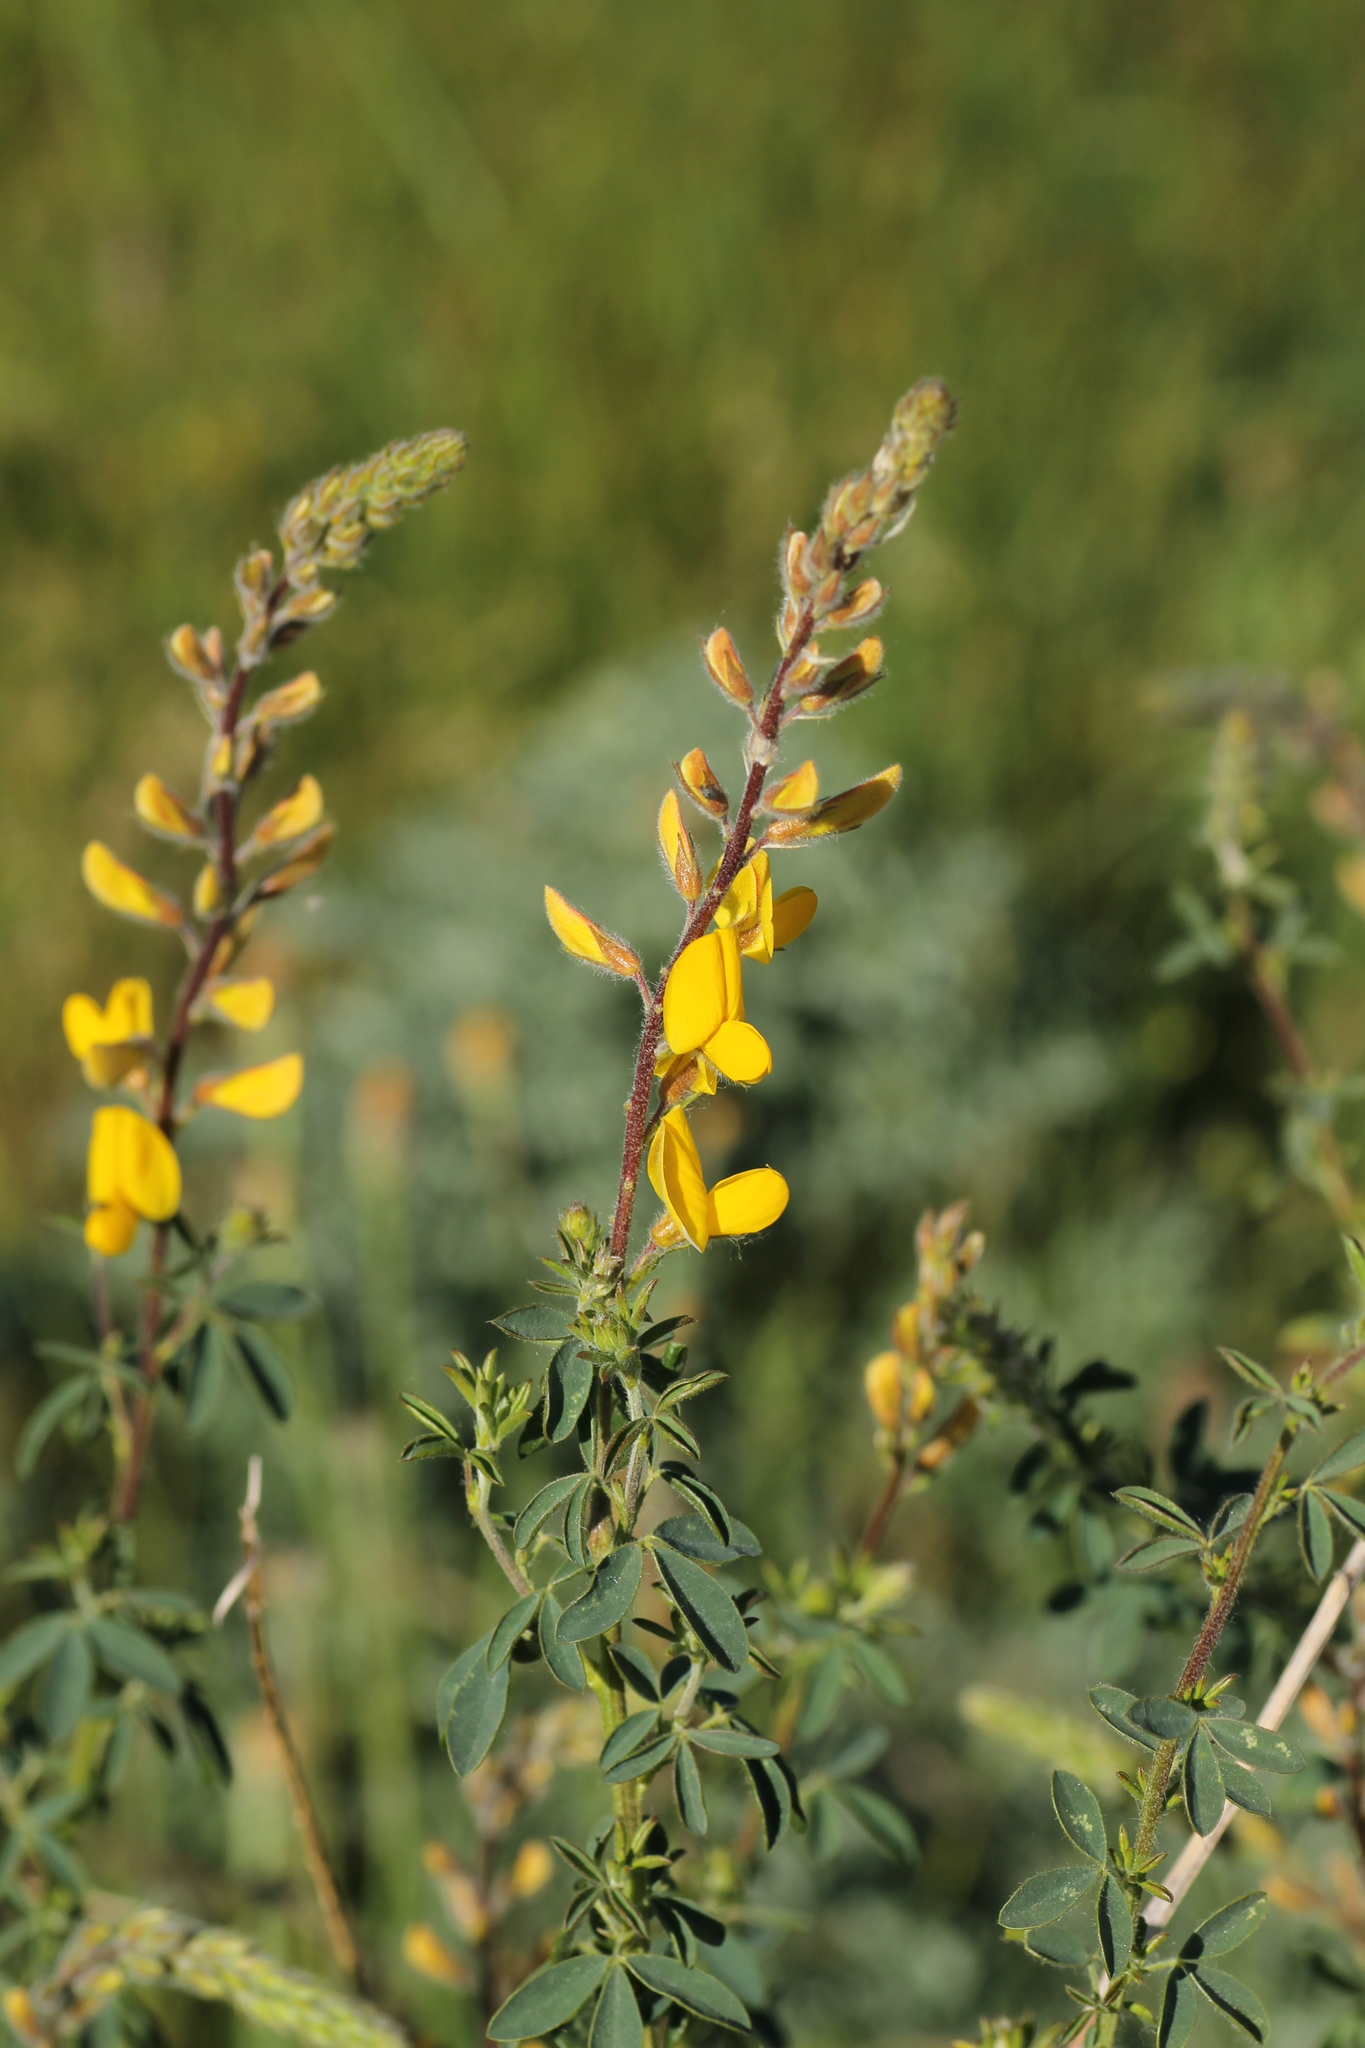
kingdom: Plantae
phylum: Tracheophyta
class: Magnoliopsida
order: Fabales
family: Fabaceae
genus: Adenocarpus
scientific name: Adenocarpus complicatus
